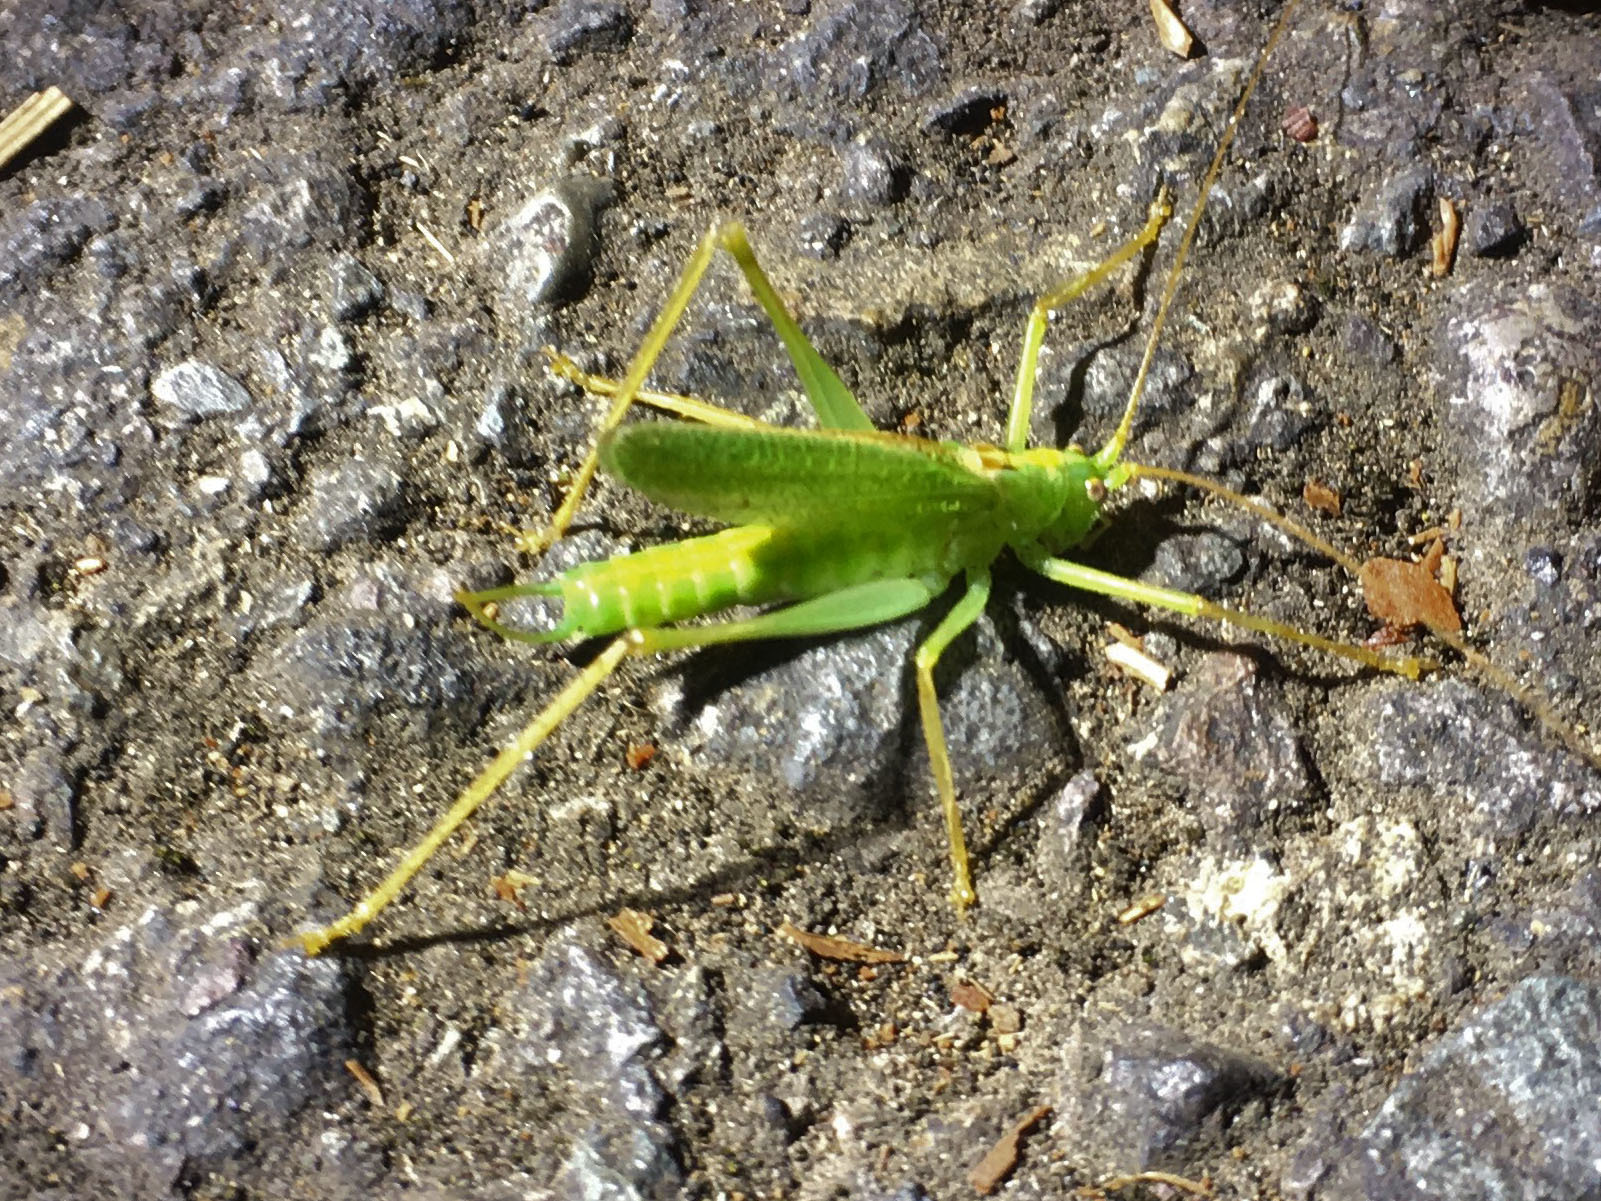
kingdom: Animalia
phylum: Arthropoda
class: Insecta
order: Orthoptera
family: Tettigoniidae
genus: Meconema
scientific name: Meconema thalassinum
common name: Oak bush-cricket
